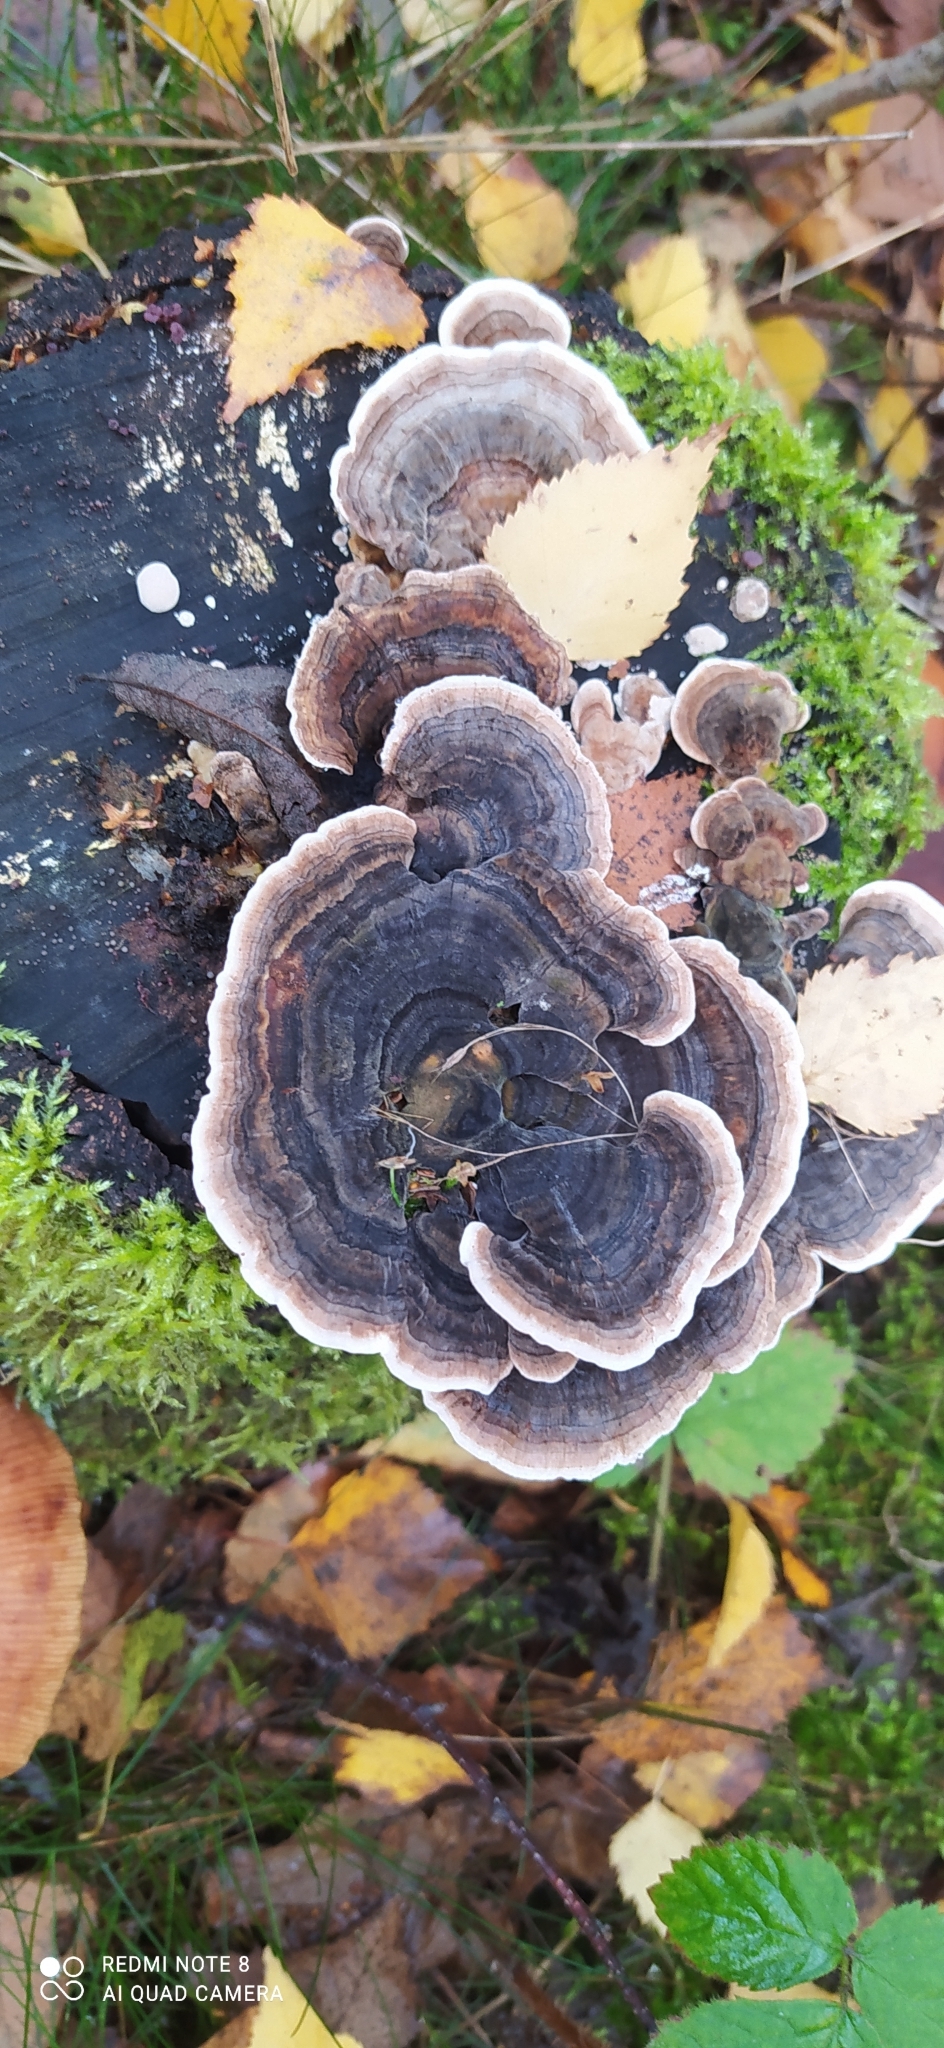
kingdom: Fungi
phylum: Basidiomycota
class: Agaricomycetes
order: Polyporales
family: Polyporaceae
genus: Trametes
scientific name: Trametes versicolor
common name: Turkeytail
